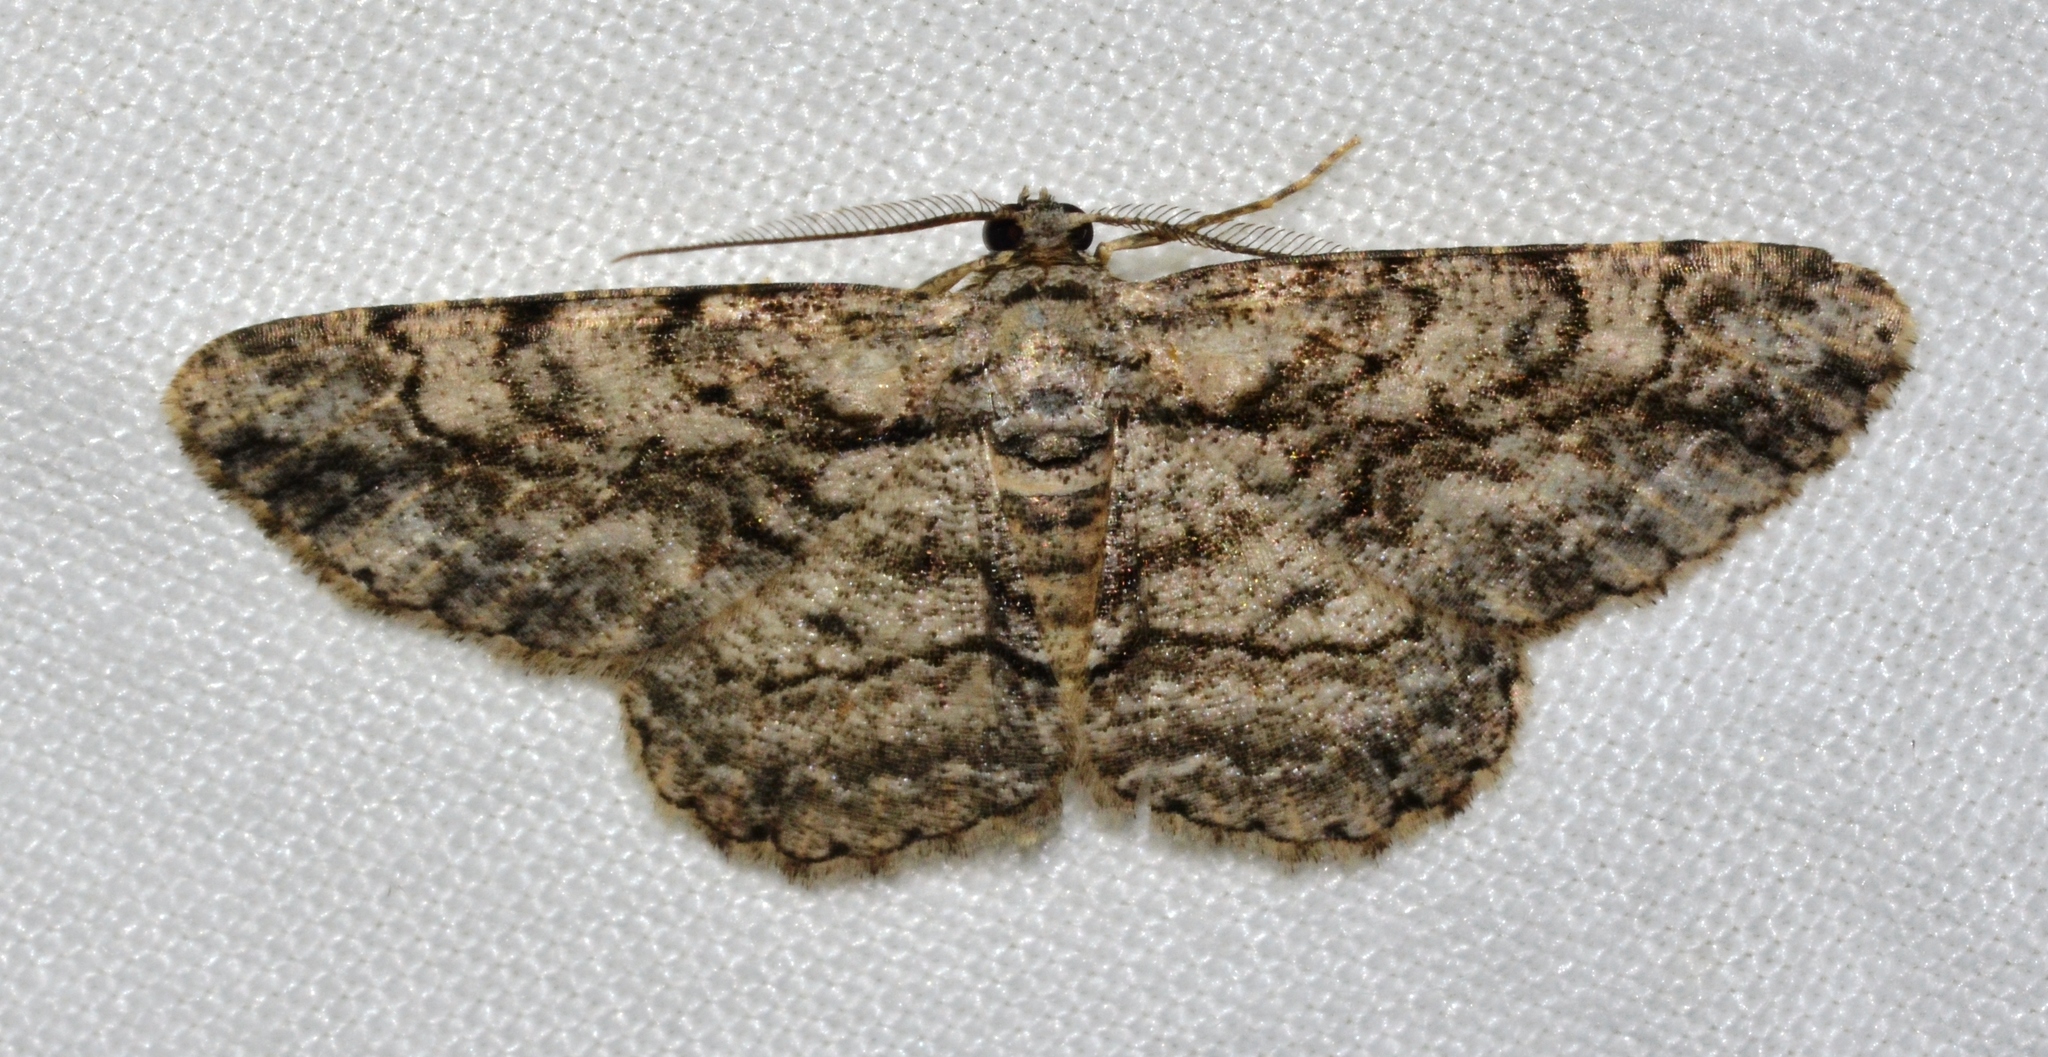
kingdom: Animalia
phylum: Arthropoda
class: Insecta
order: Lepidoptera
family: Geometridae
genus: Anavitrinella
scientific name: Anavitrinella pampinaria
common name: Common gray
